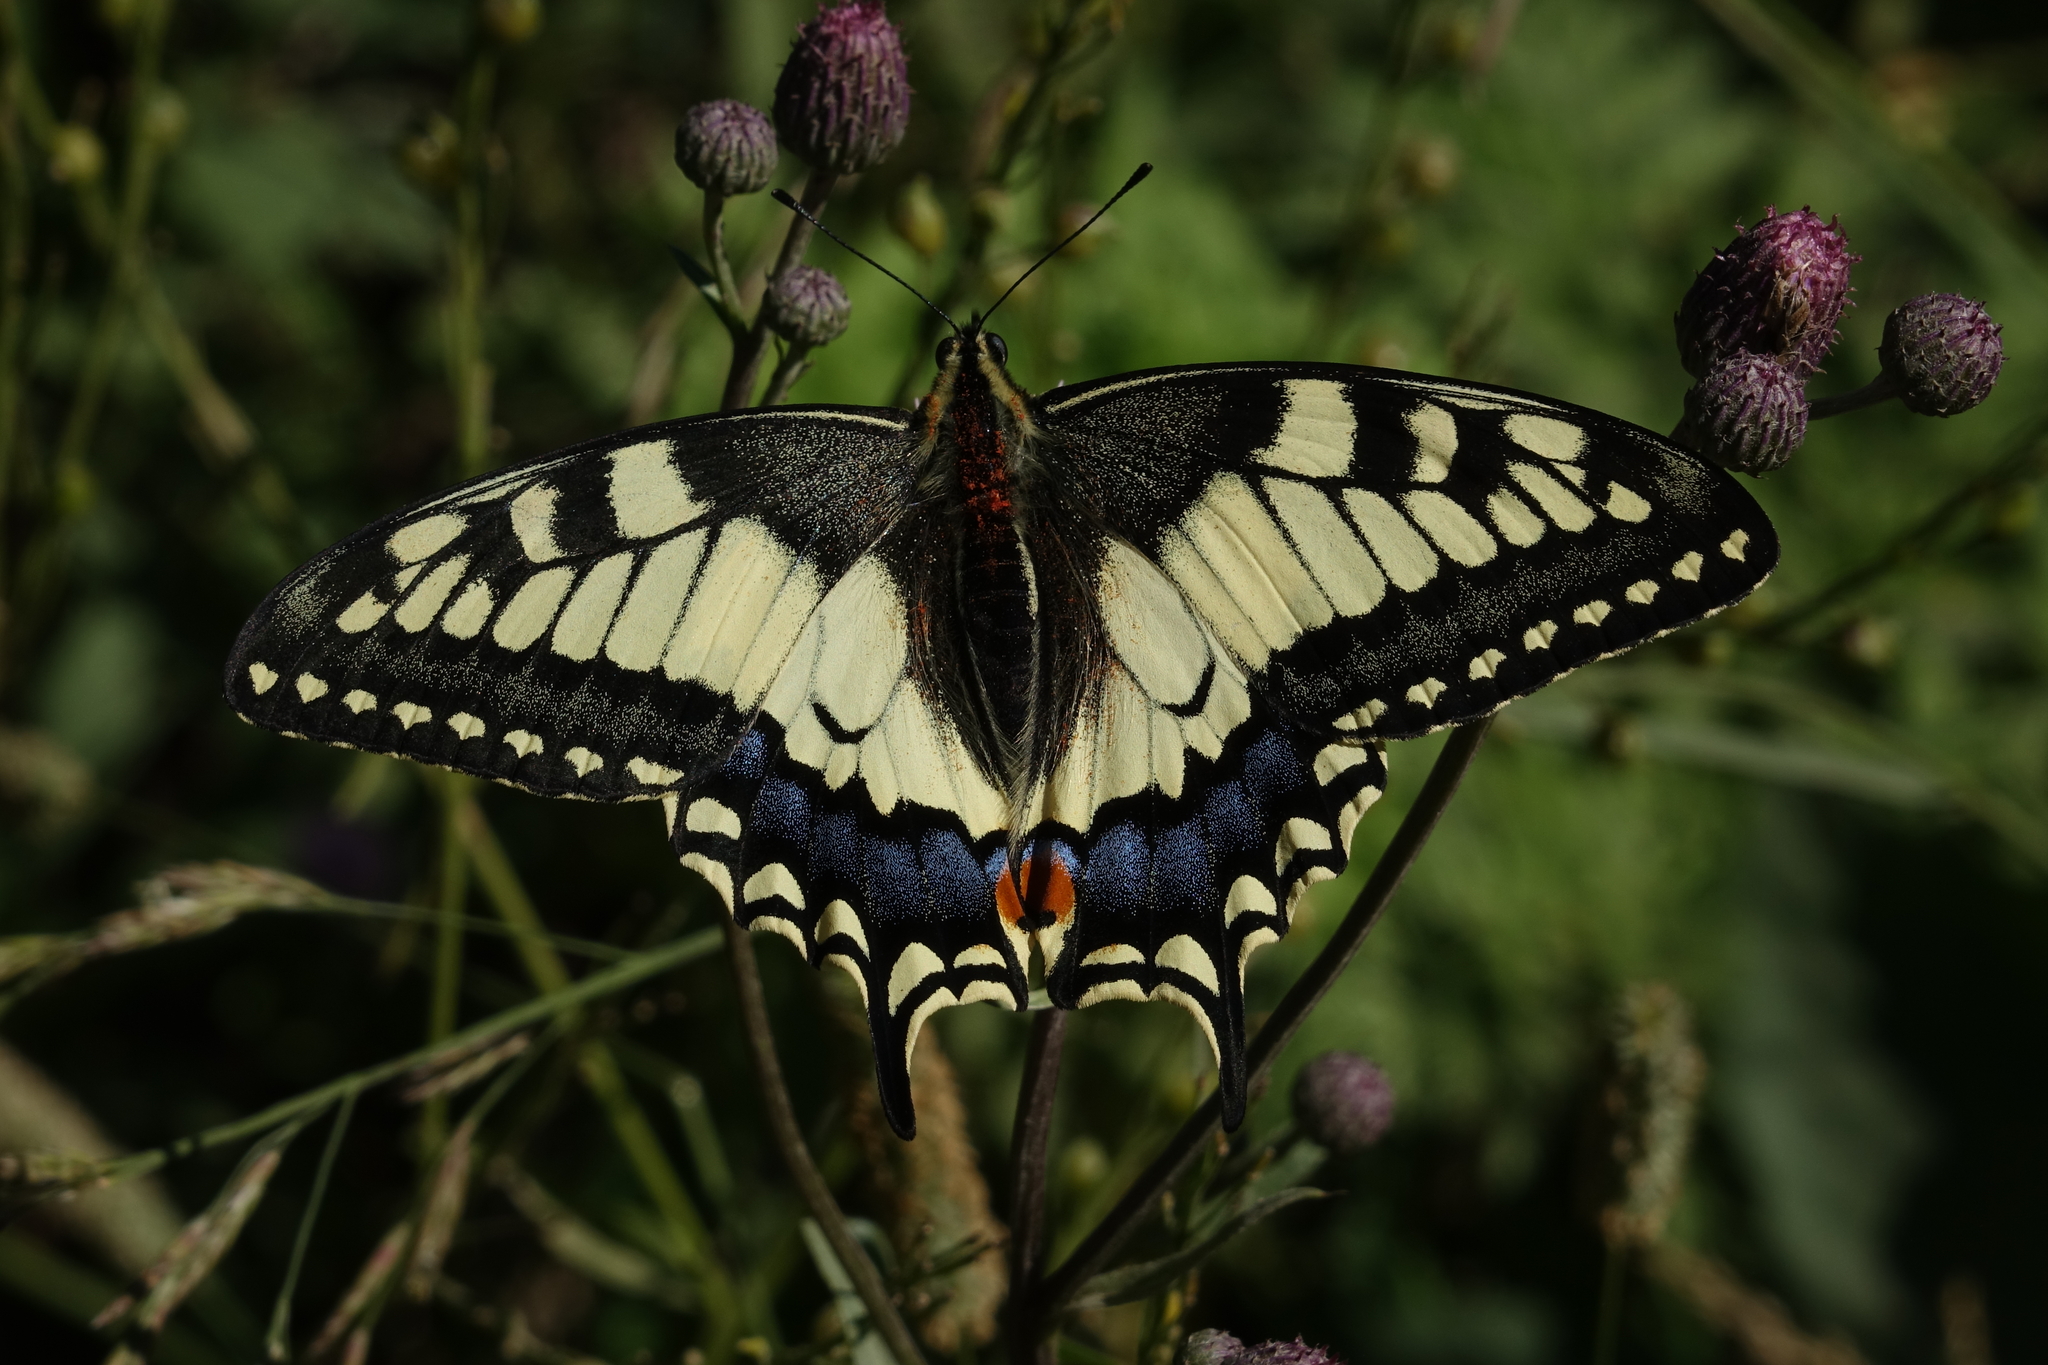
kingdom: Animalia
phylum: Arthropoda
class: Insecta
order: Lepidoptera
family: Papilionidae
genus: Papilio
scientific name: Papilio machaon
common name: Swallowtail
